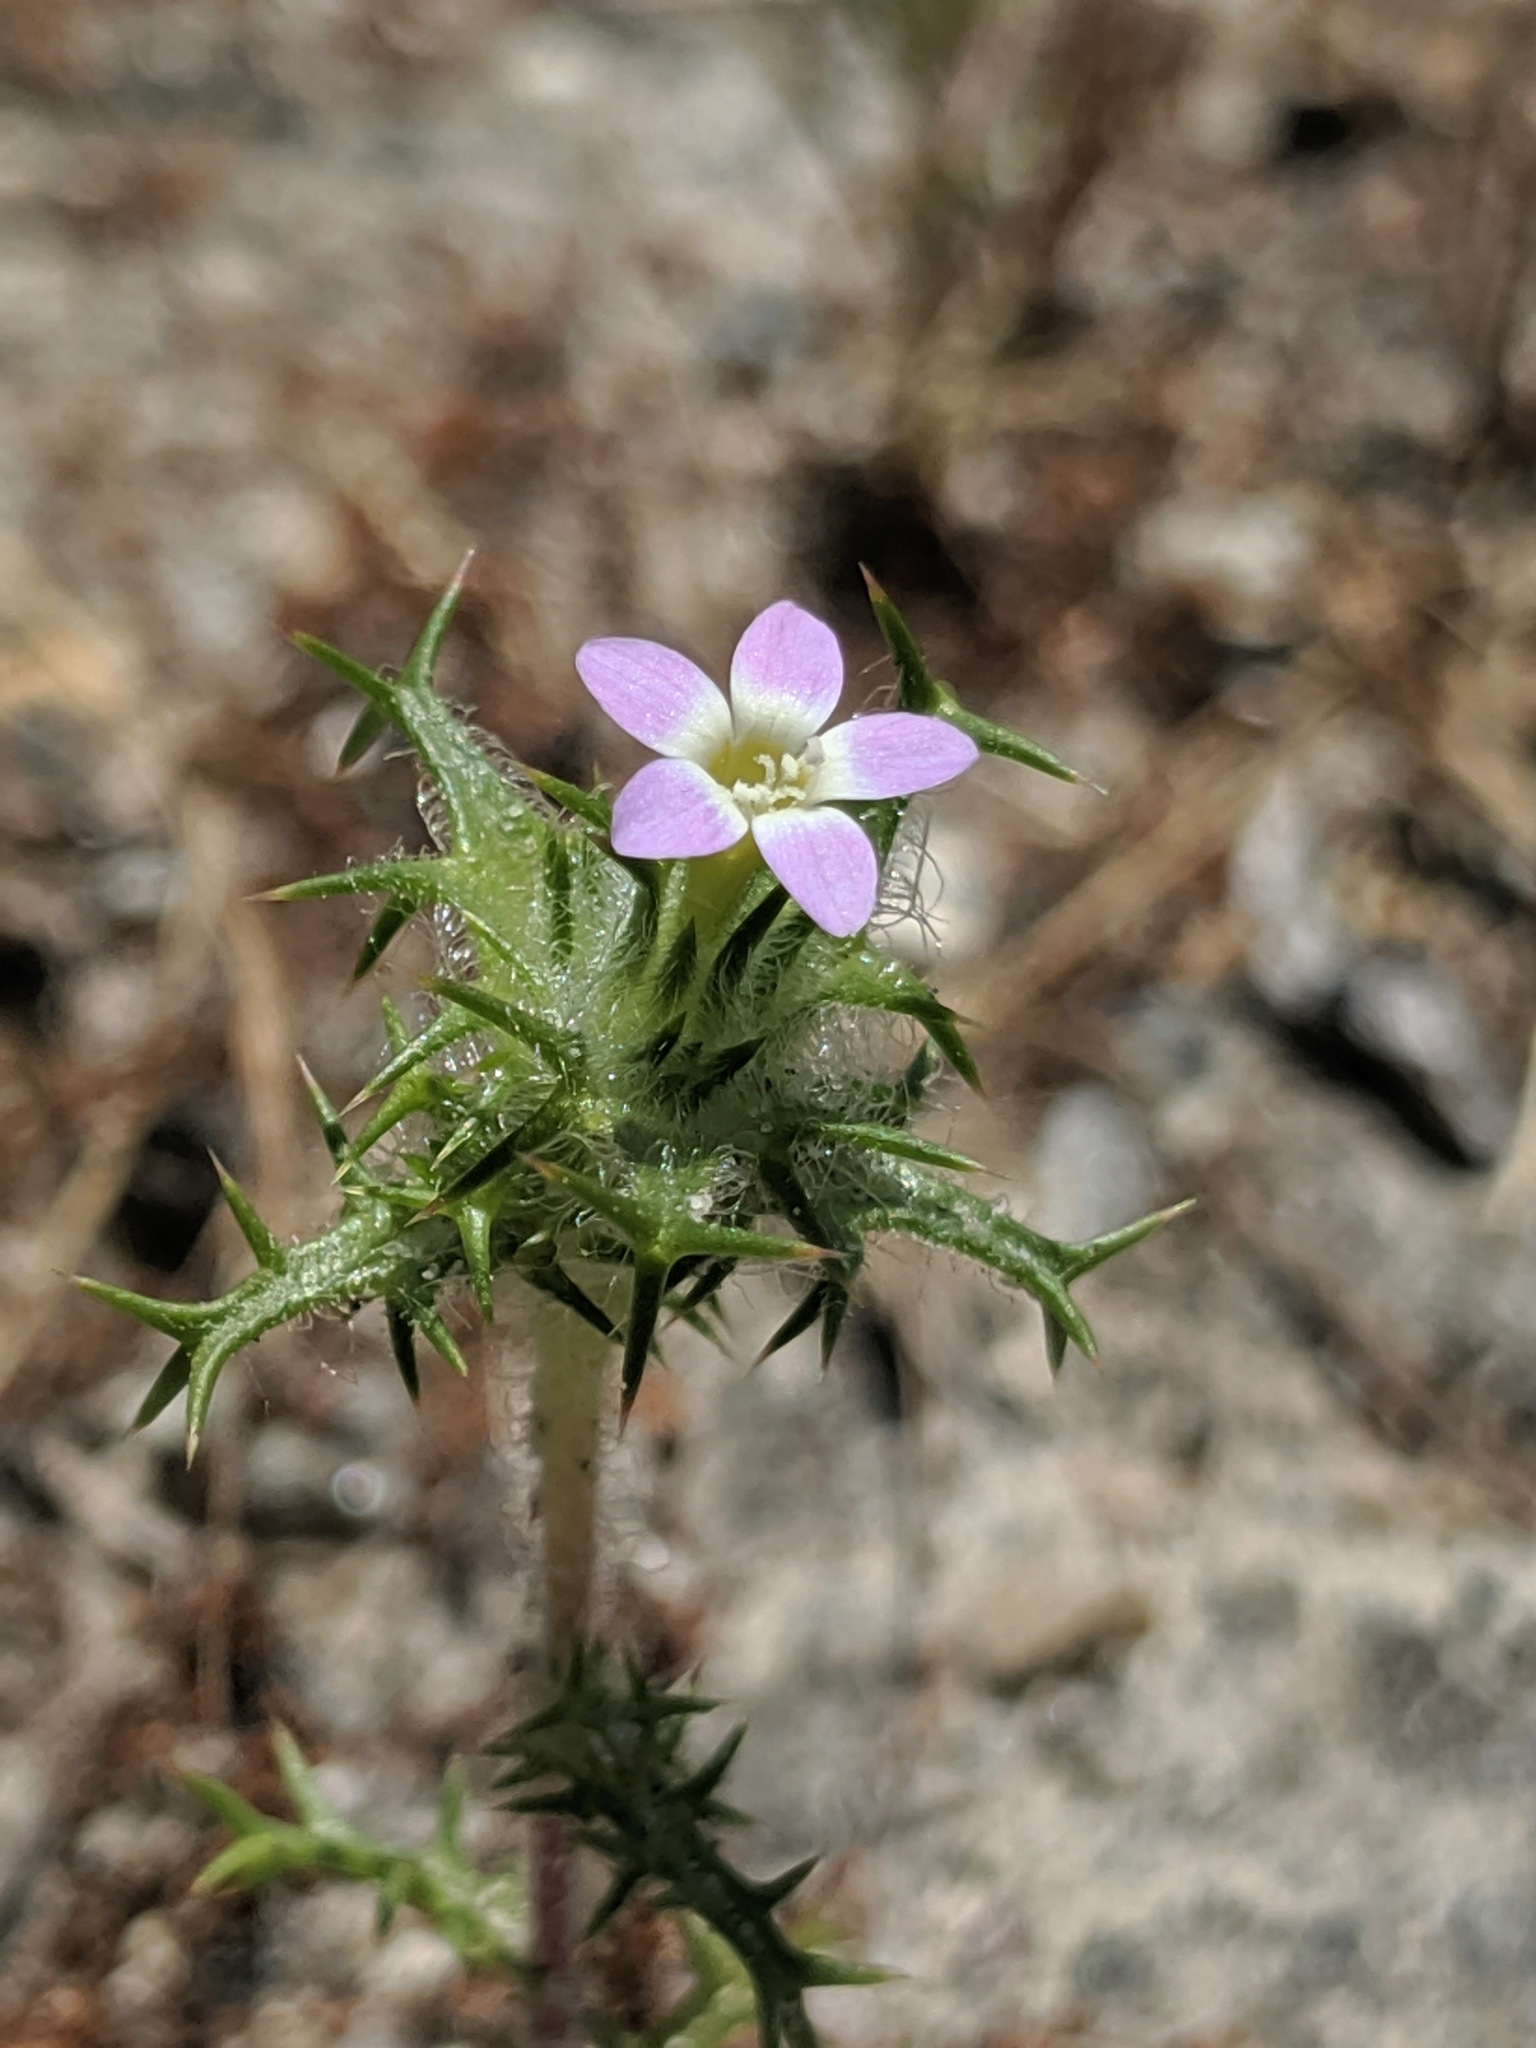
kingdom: Plantae
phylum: Tracheophyta
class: Magnoliopsida
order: Ericales
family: Polemoniaceae
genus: Navarretia
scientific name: Navarretia hamata
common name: Hooked navarretia
